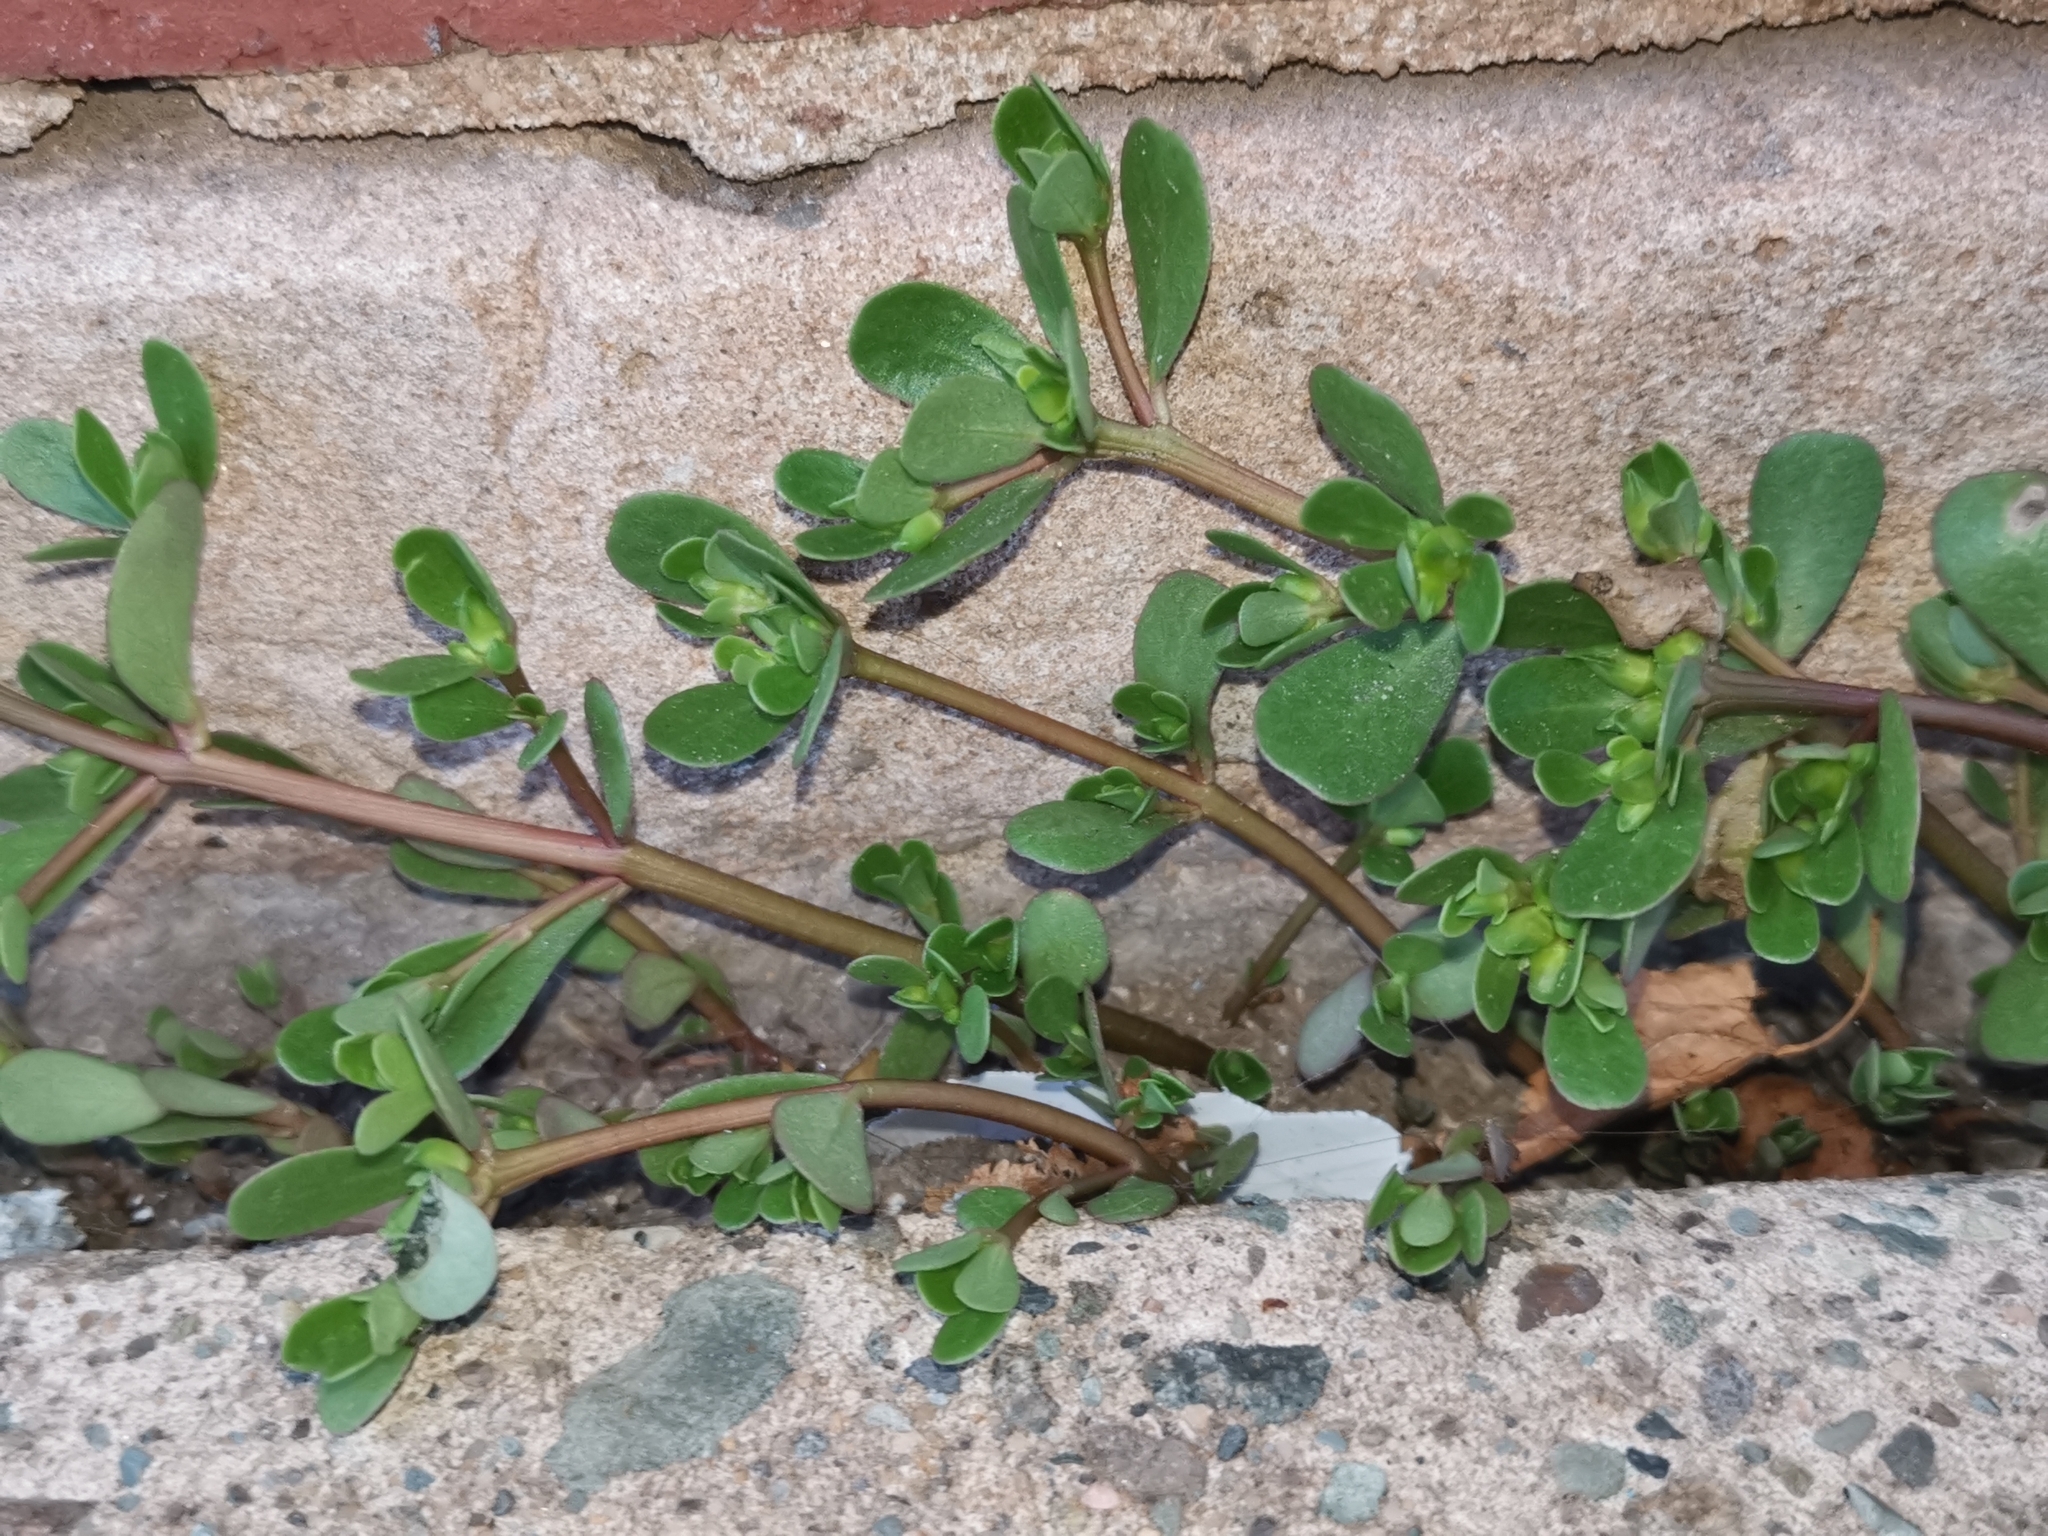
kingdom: Plantae
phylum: Tracheophyta
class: Magnoliopsida
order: Caryophyllales
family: Portulacaceae
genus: Portulaca
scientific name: Portulaca oleracea
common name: Common purslane
